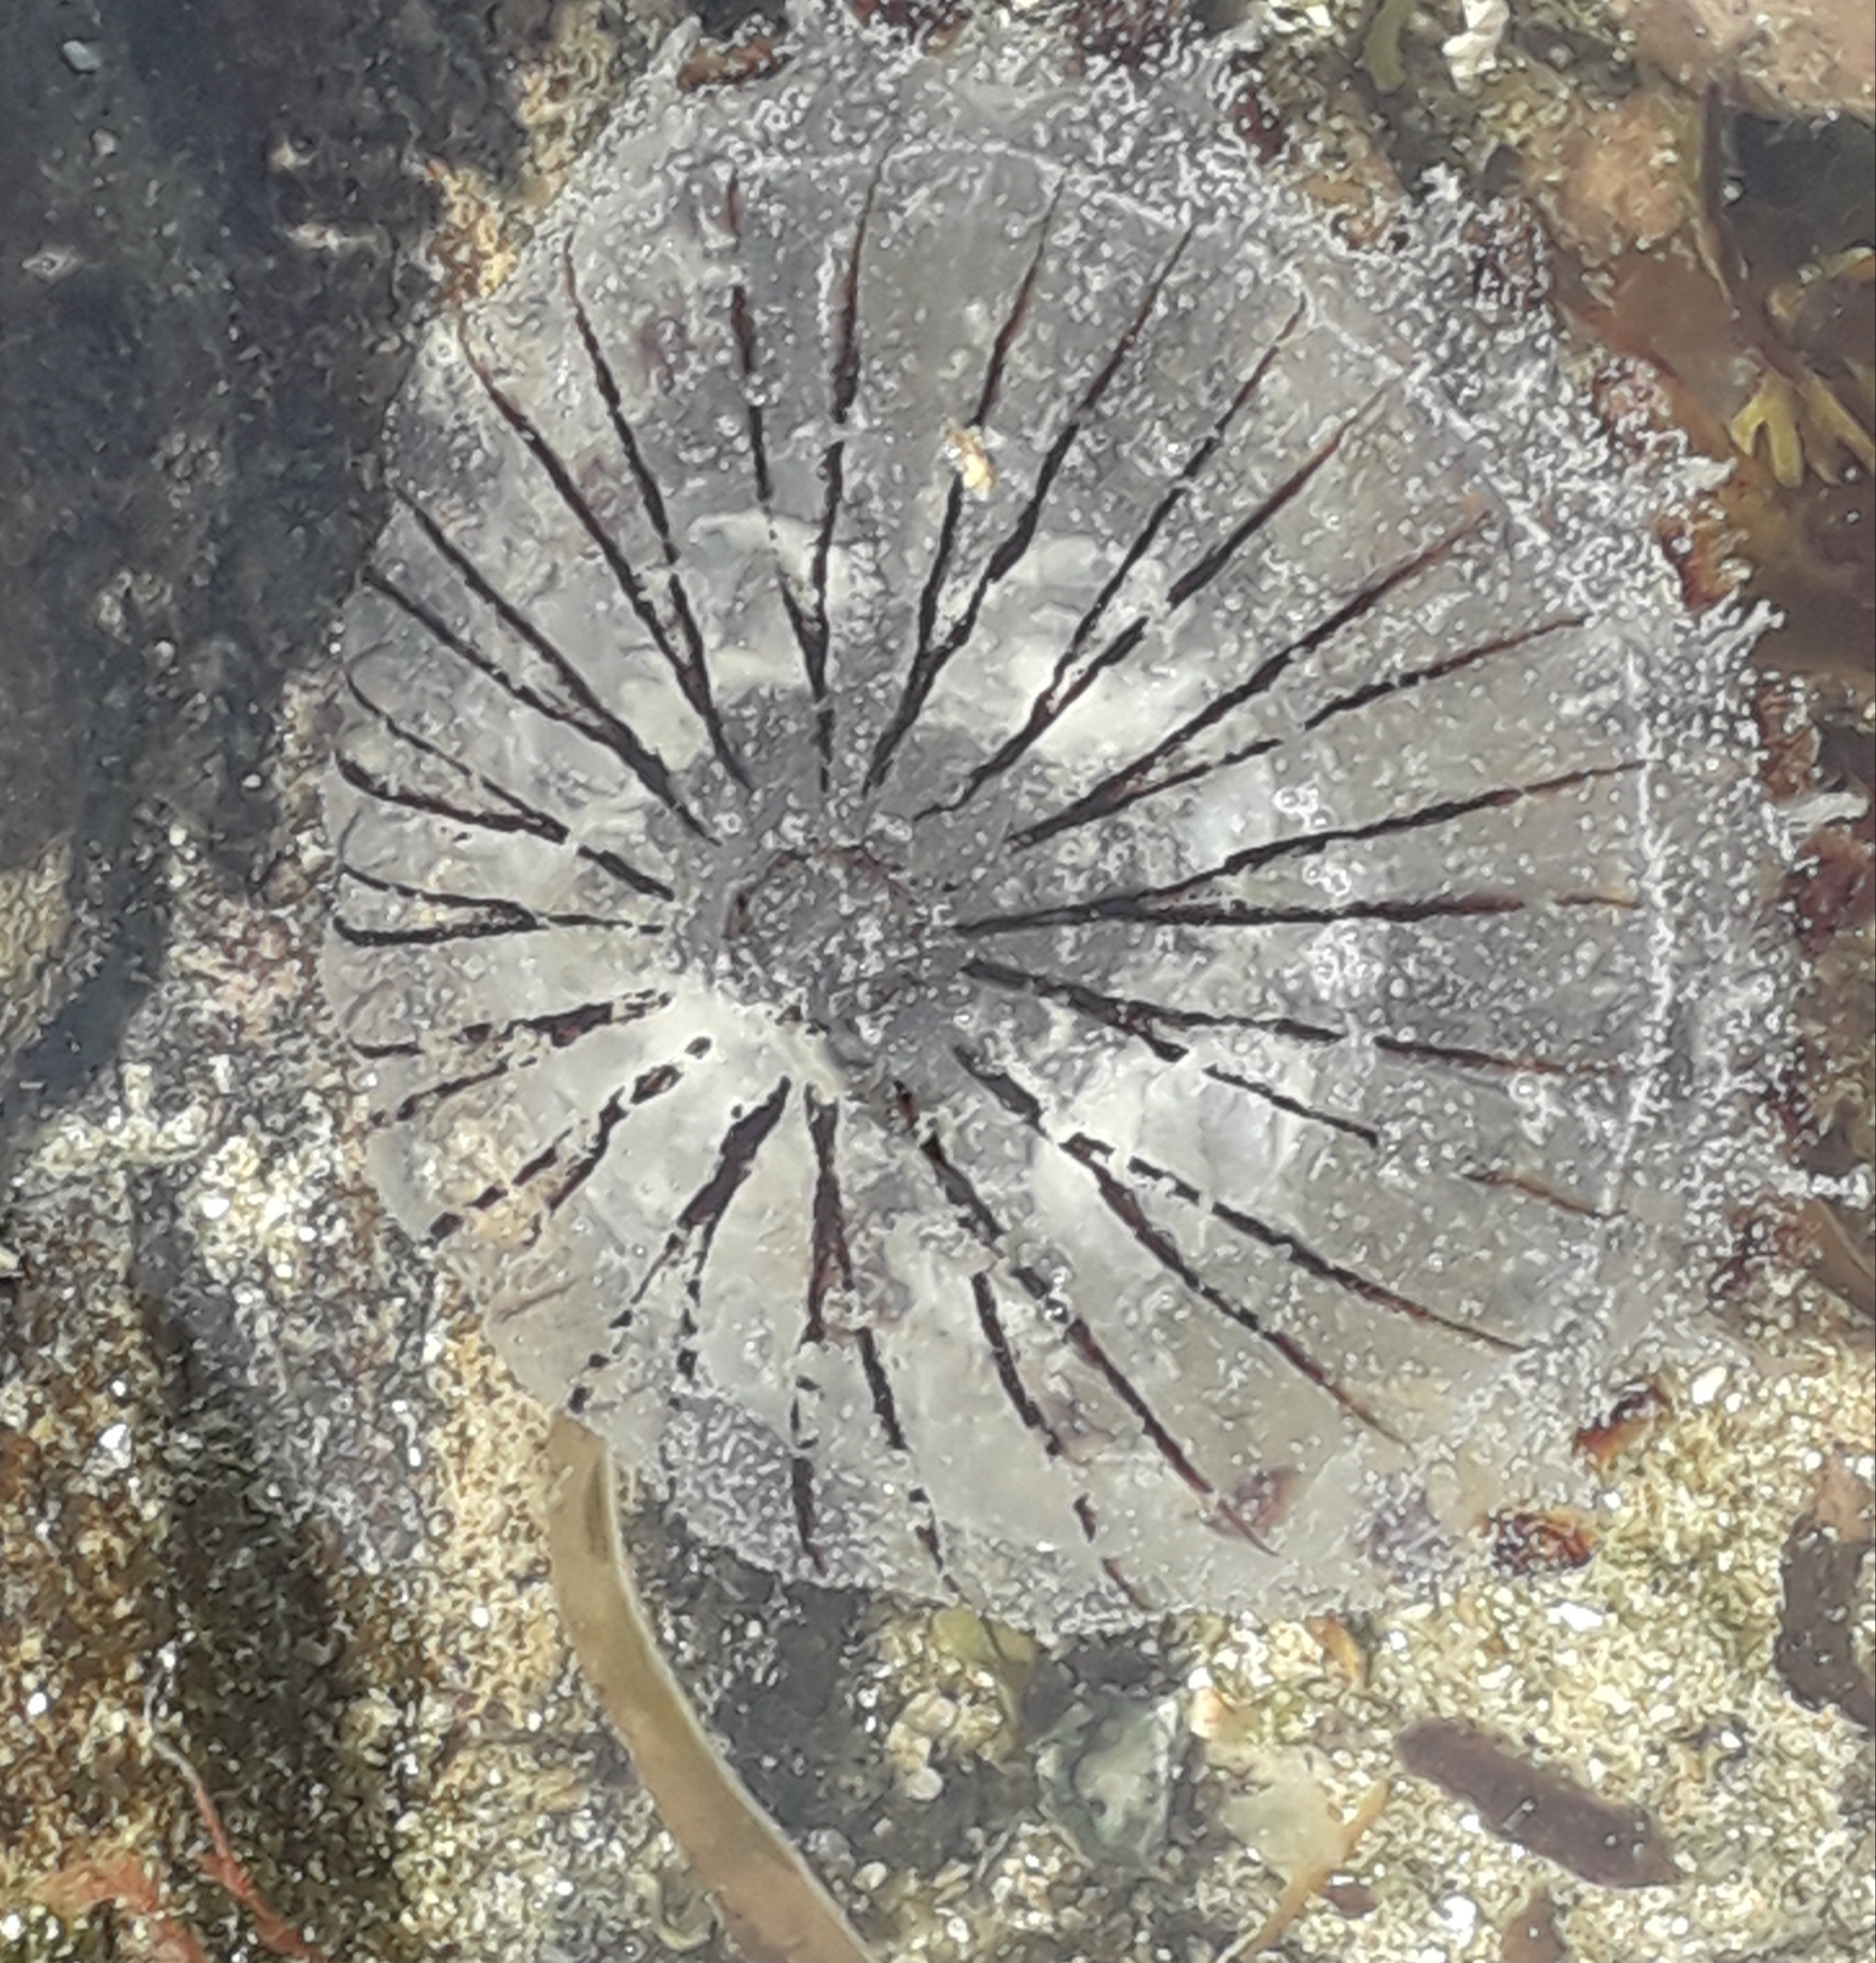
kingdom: Animalia
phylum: Cnidaria
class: Scyphozoa
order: Semaeostomeae
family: Pelagiidae
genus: Chrysaora
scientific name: Chrysaora hysoscella
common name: Compass jellyfish
